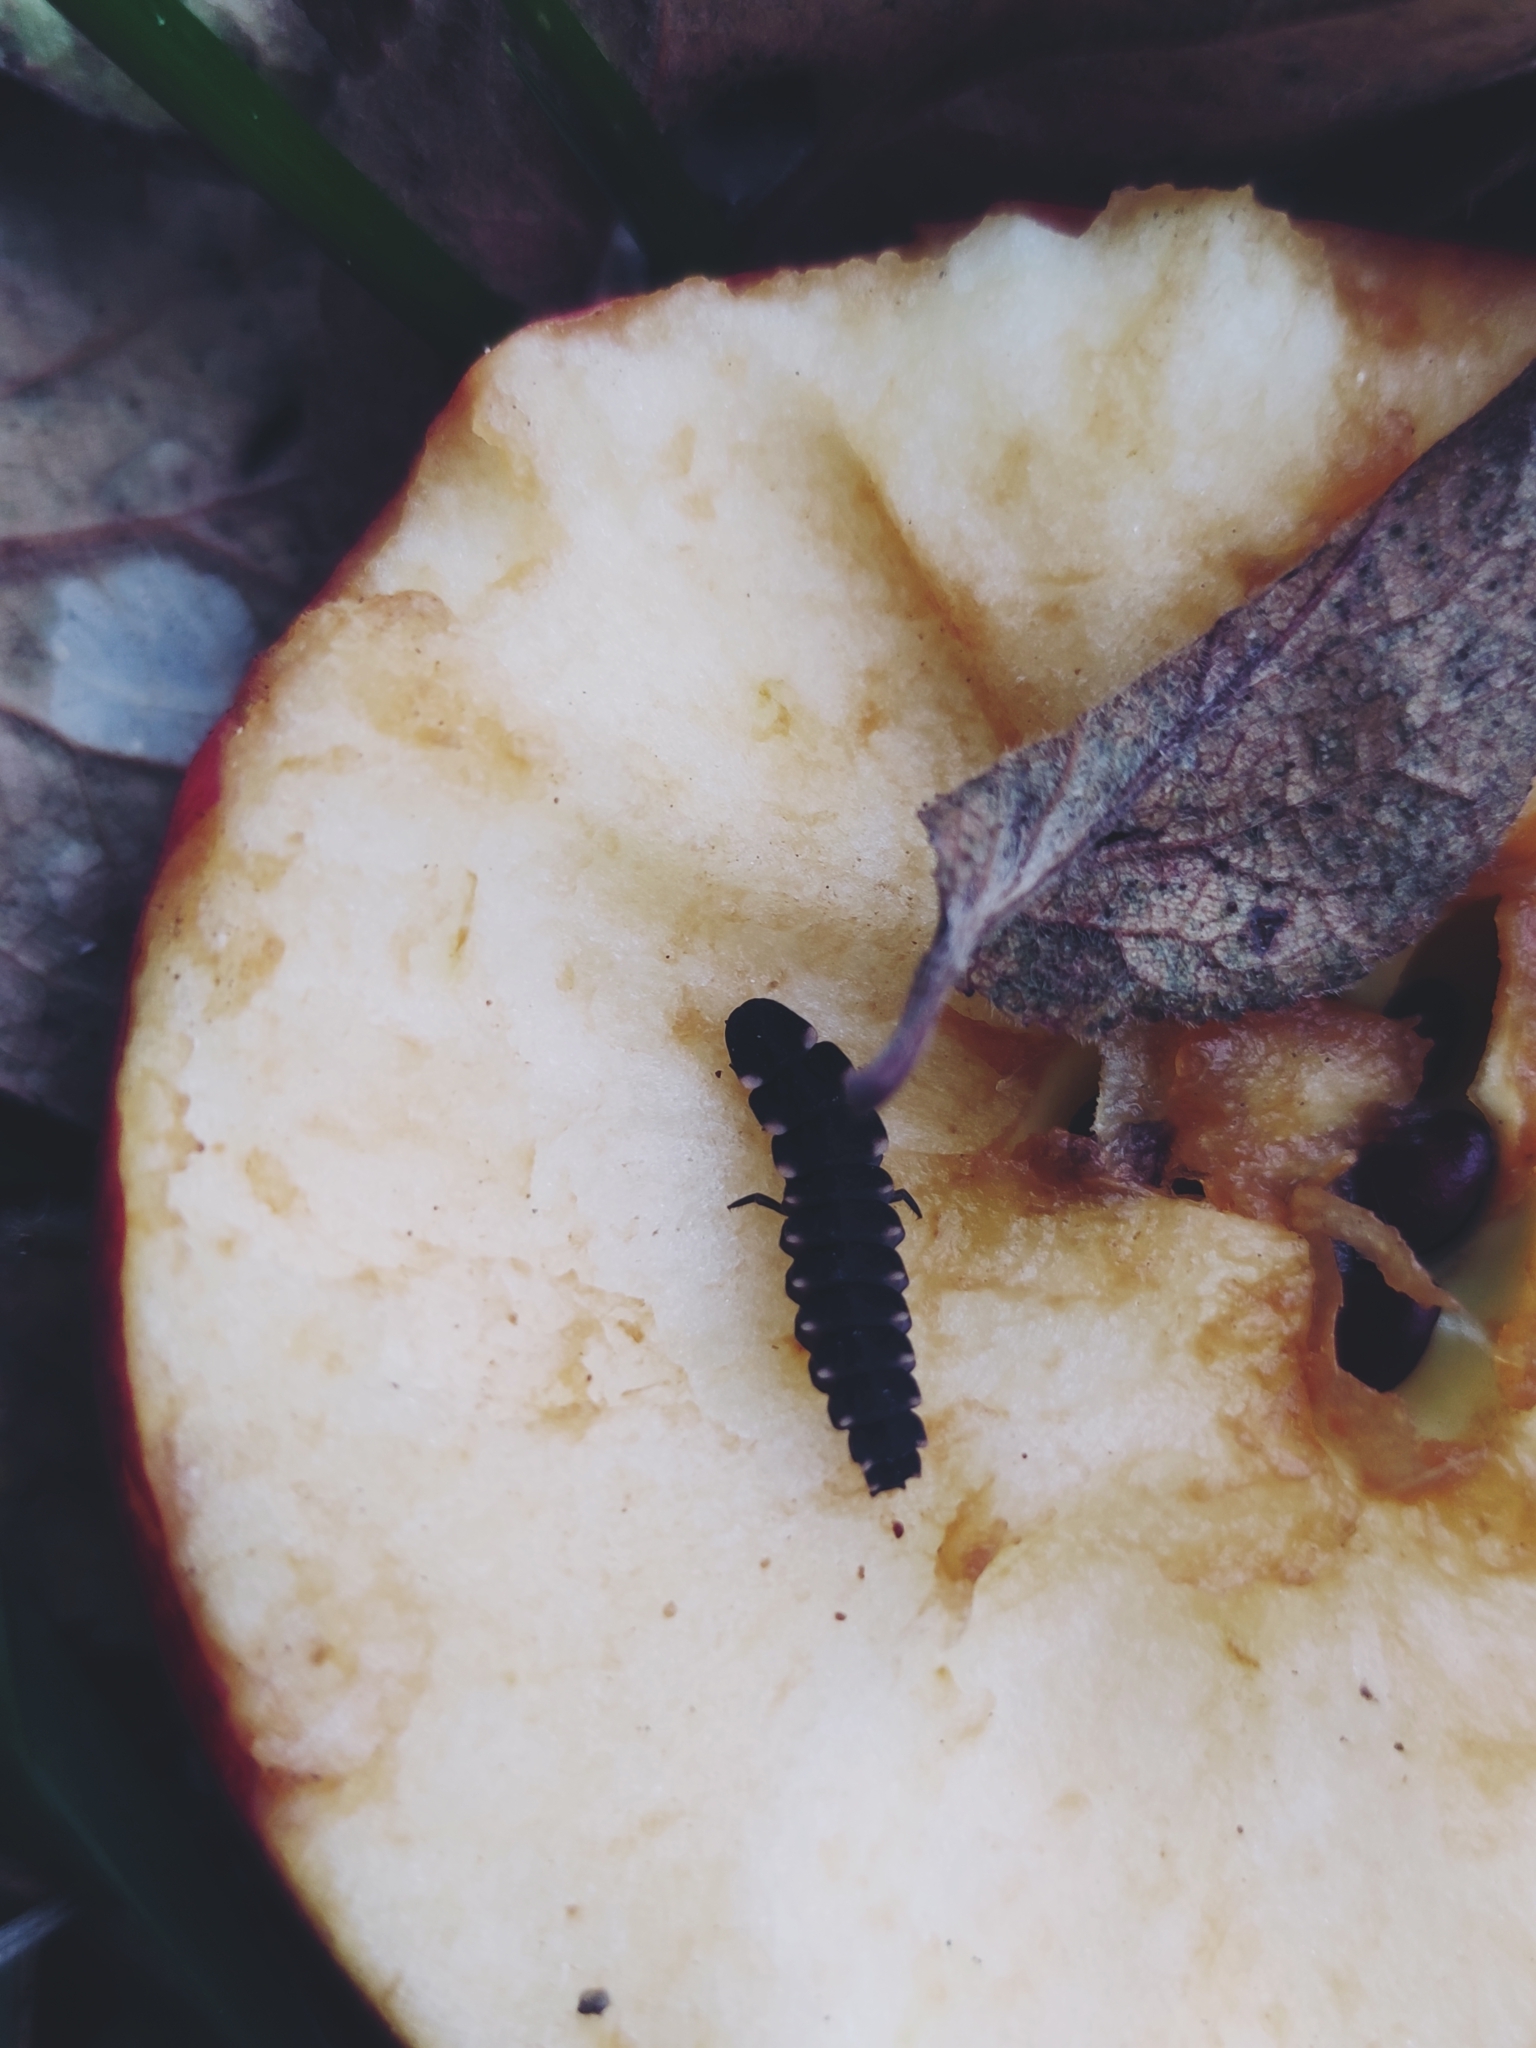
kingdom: Animalia
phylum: Arthropoda
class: Insecta
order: Coleoptera
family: Lampyridae
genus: Lampyris
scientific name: Lampyris noctiluca
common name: Glow-worm
